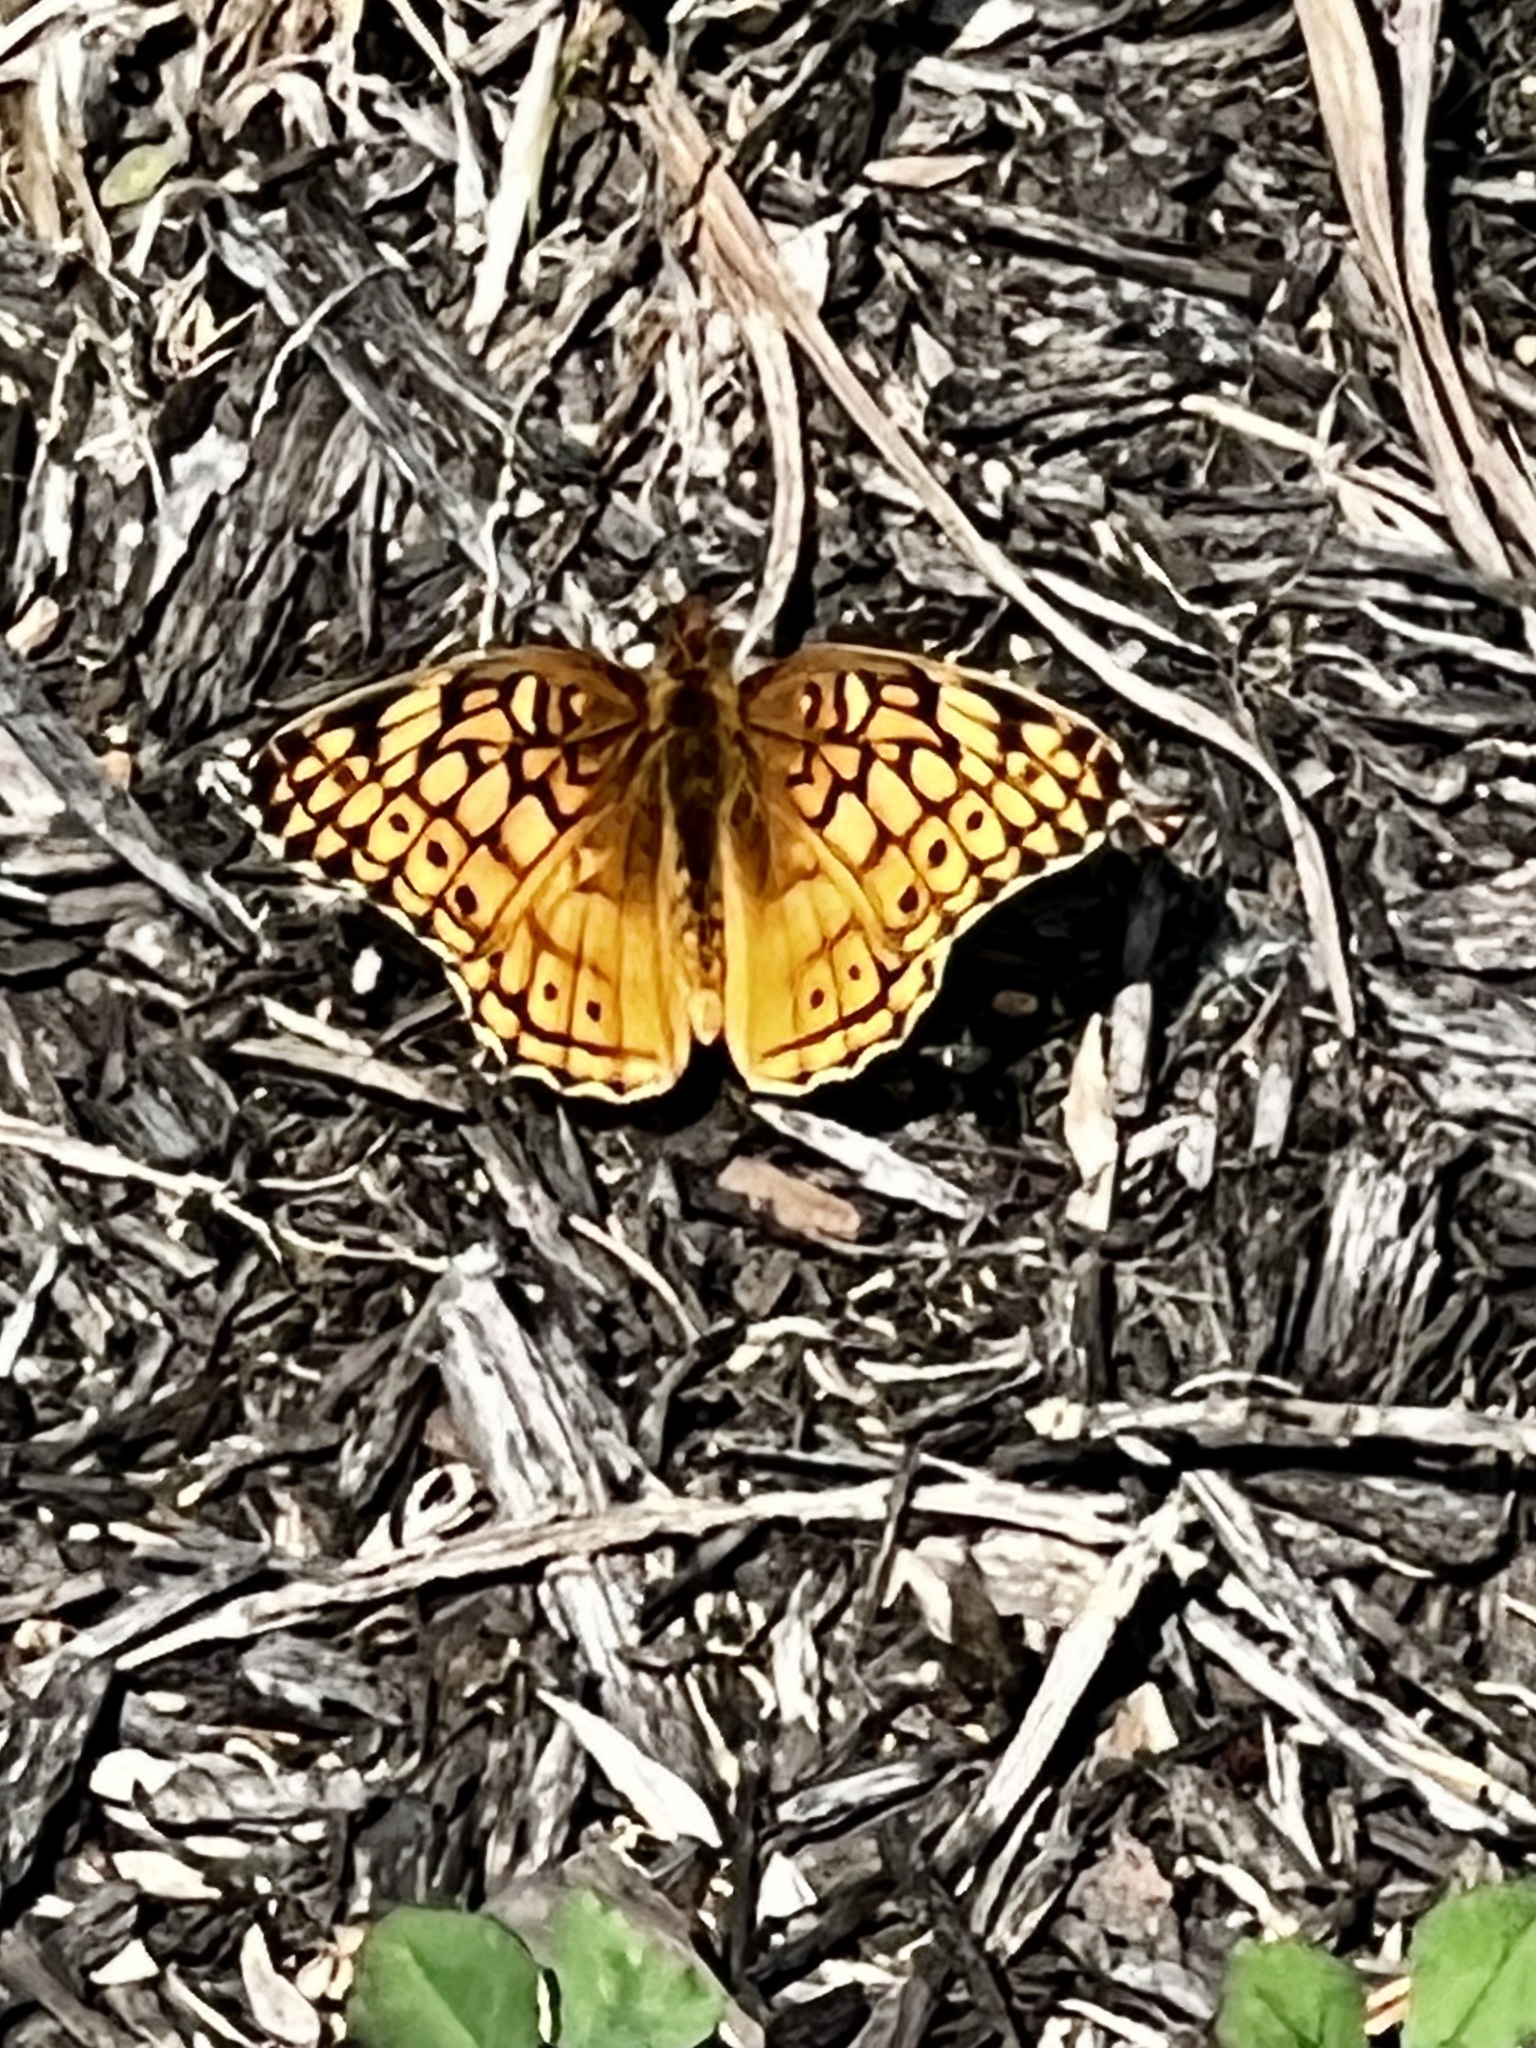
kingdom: Animalia
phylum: Arthropoda
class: Insecta
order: Lepidoptera
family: Nymphalidae
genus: Euptoieta
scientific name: Euptoieta claudia
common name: Variegated fritillary
